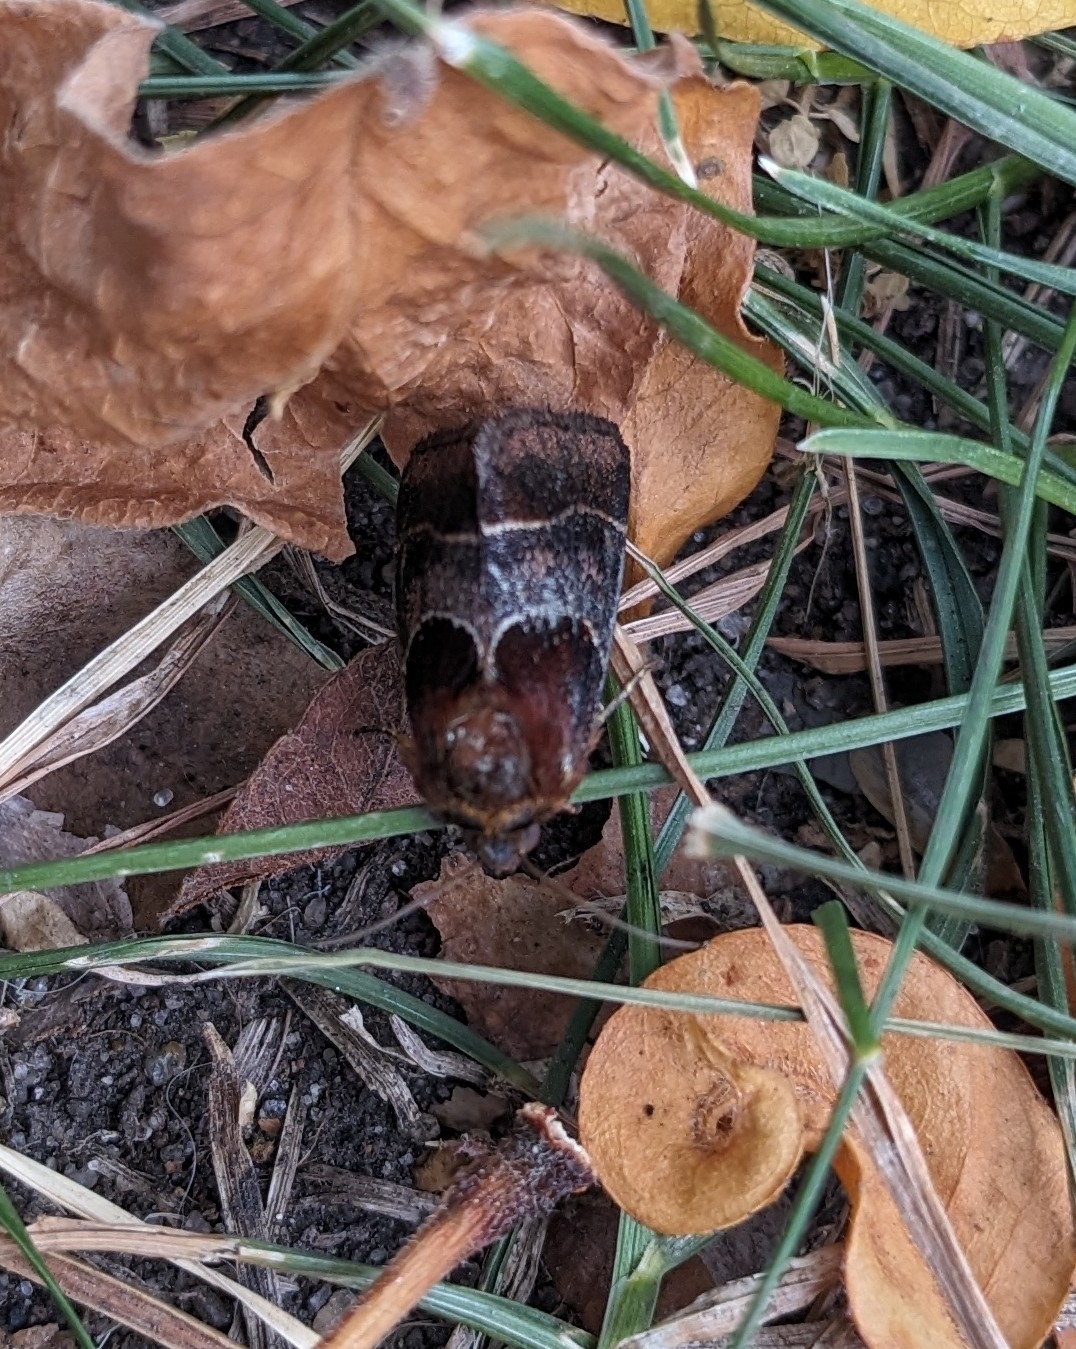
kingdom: Animalia
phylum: Arthropoda
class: Insecta
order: Lepidoptera
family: Noctuidae
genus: Schinia
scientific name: Schinia arcigera
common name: Arcigera flower moth
